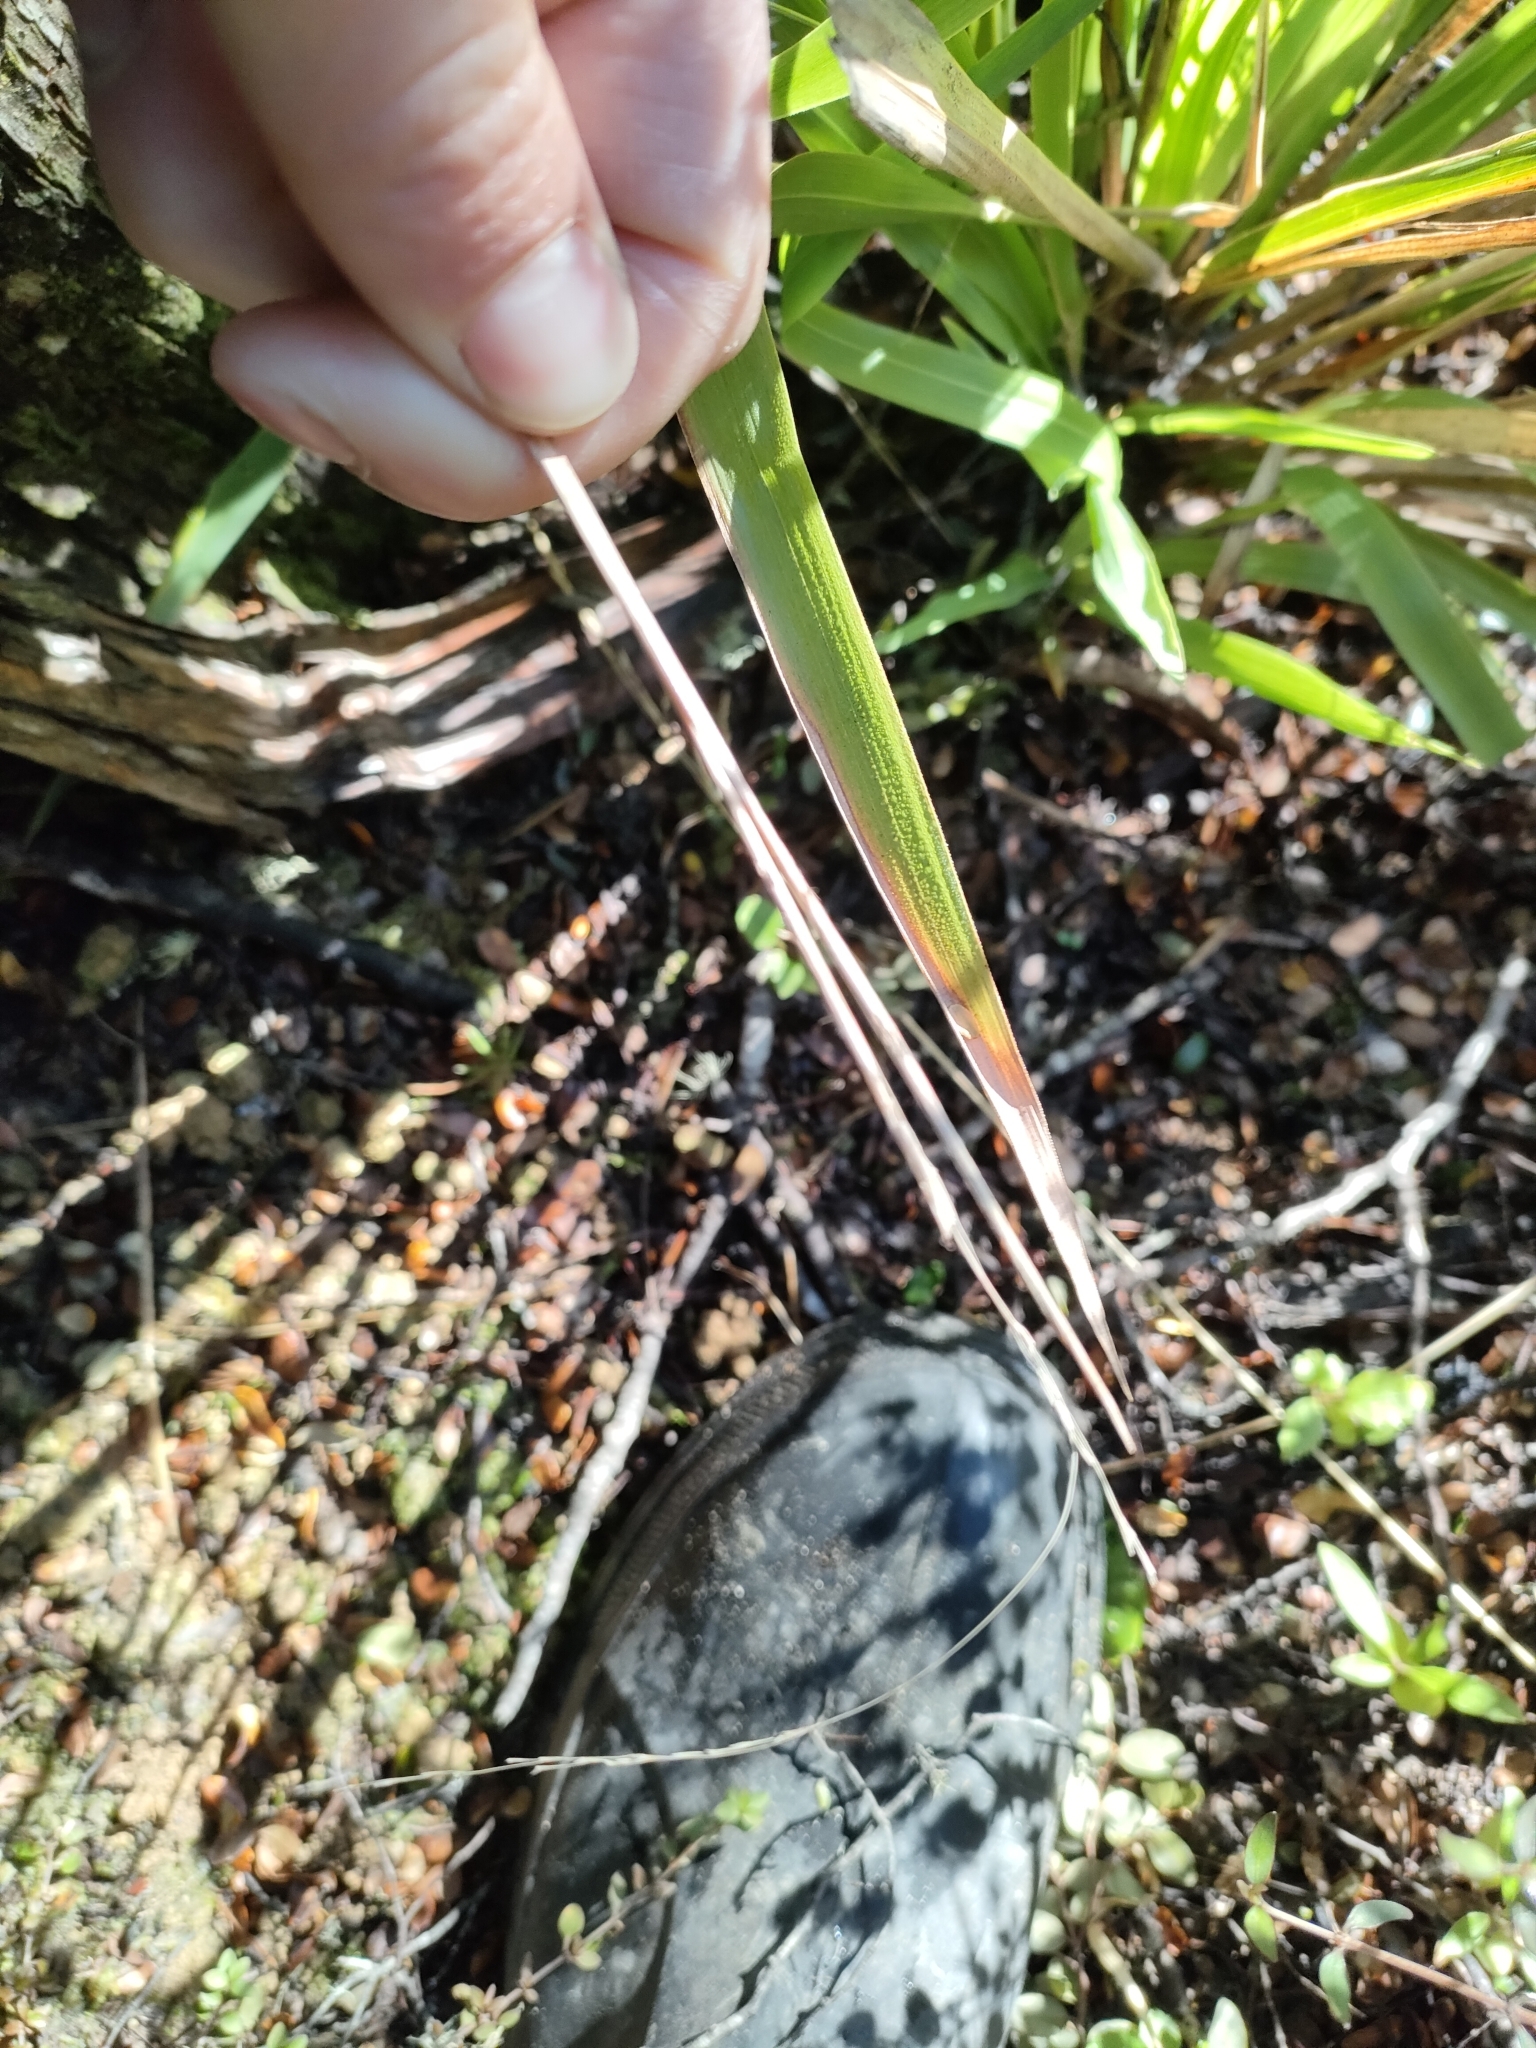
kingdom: Plantae
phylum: Tracheophyta
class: Liliopsida
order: Poales
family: Poaceae
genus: Ehrharta
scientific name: Ehrharta diplax
